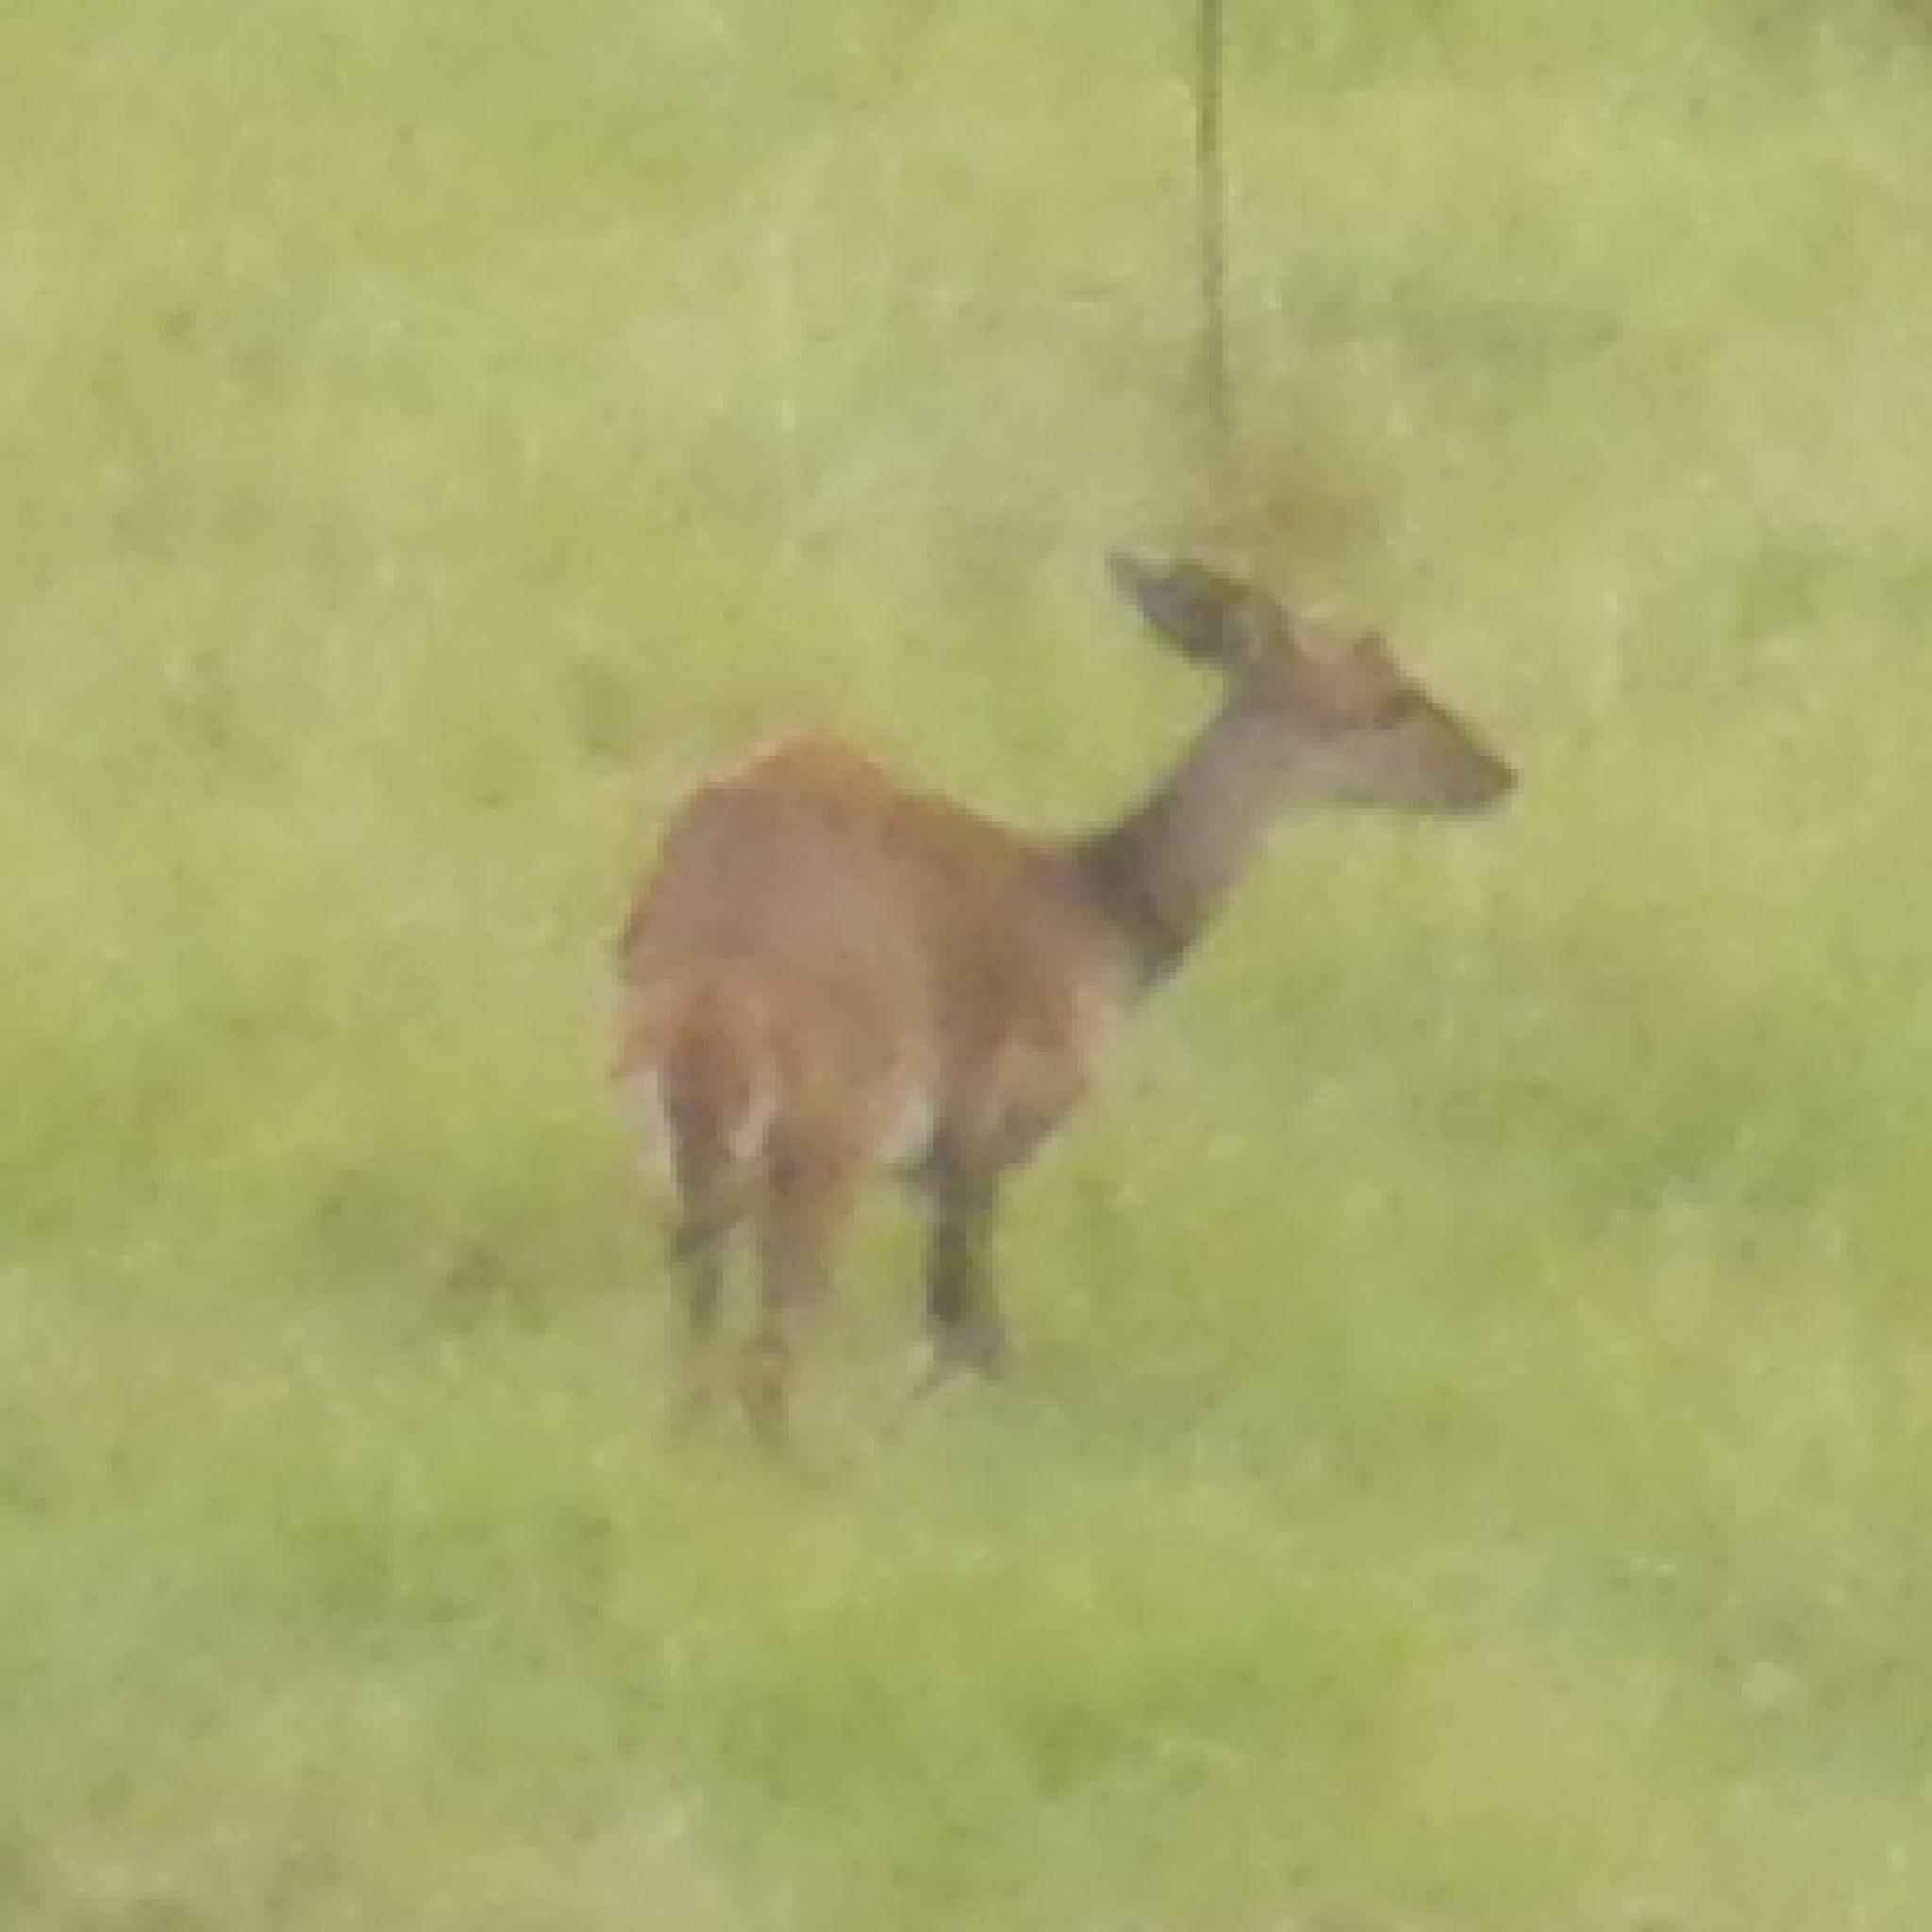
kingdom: Animalia
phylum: Chordata
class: Mammalia
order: Artiodactyla
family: Bovidae
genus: Tragelaphus
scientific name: Tragelaphus scriptus
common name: Bushbuck
